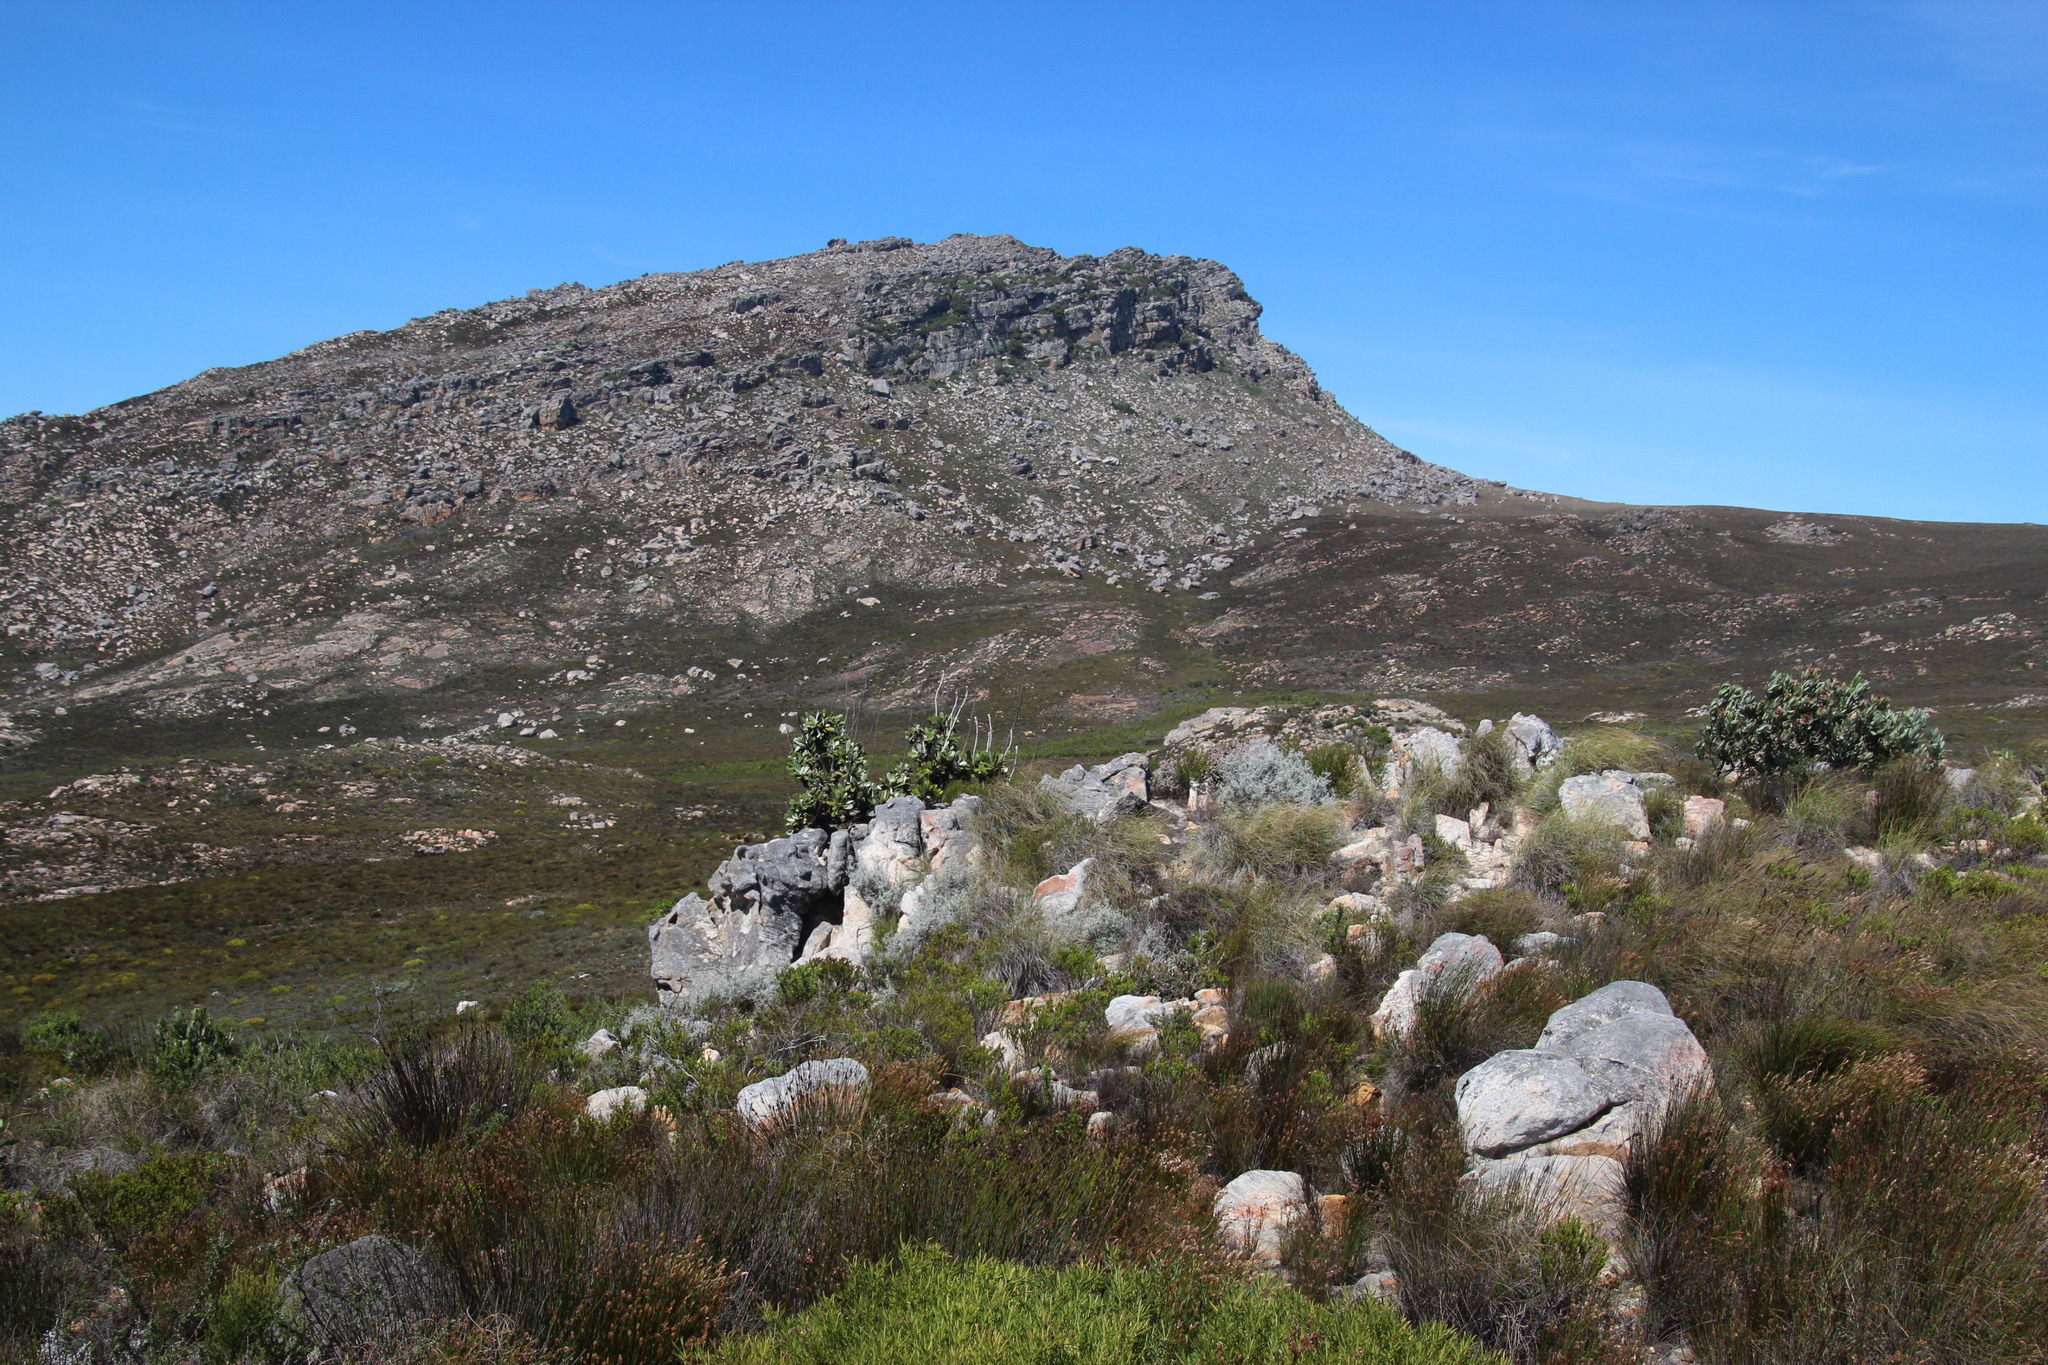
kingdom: Plantae
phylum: Tracheophyta
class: Magnoliopsida
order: Asterales
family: Asteraceae
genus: Oldenburgia
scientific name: Oldenburgia papionum
